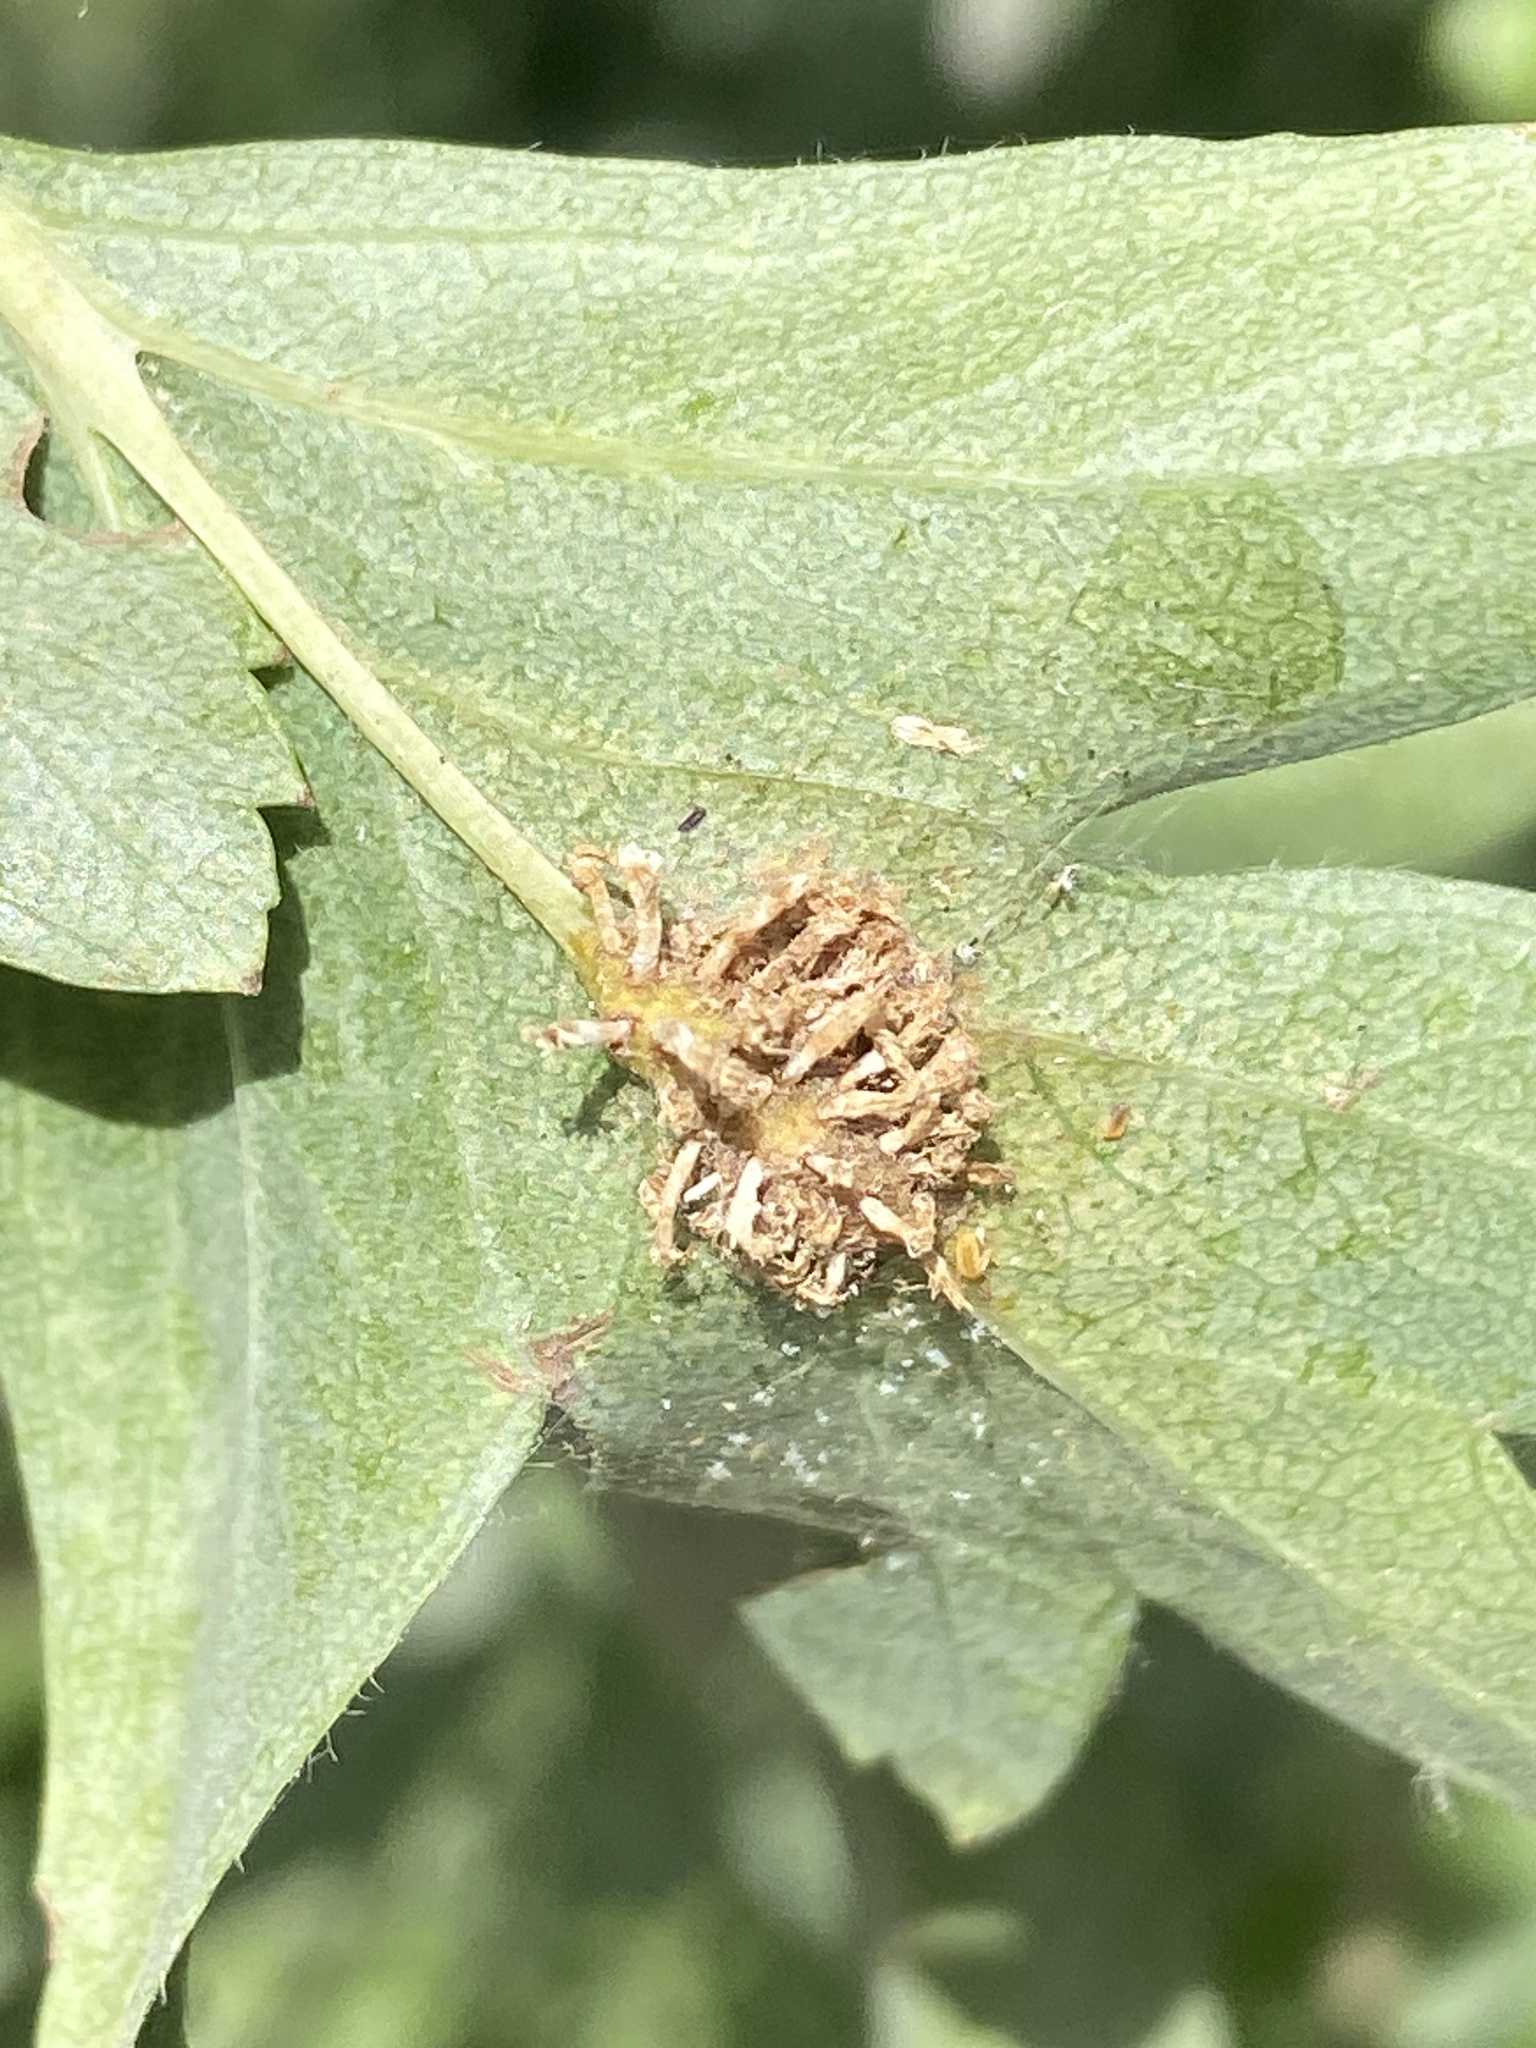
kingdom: Fungi
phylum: Basidiomycota
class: Pucciniomycetes
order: Pucciniales
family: Gymnosporangiaceae
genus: Gymnosporangium
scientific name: Gymnosporangium clavariiforme
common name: Tongues of fire
